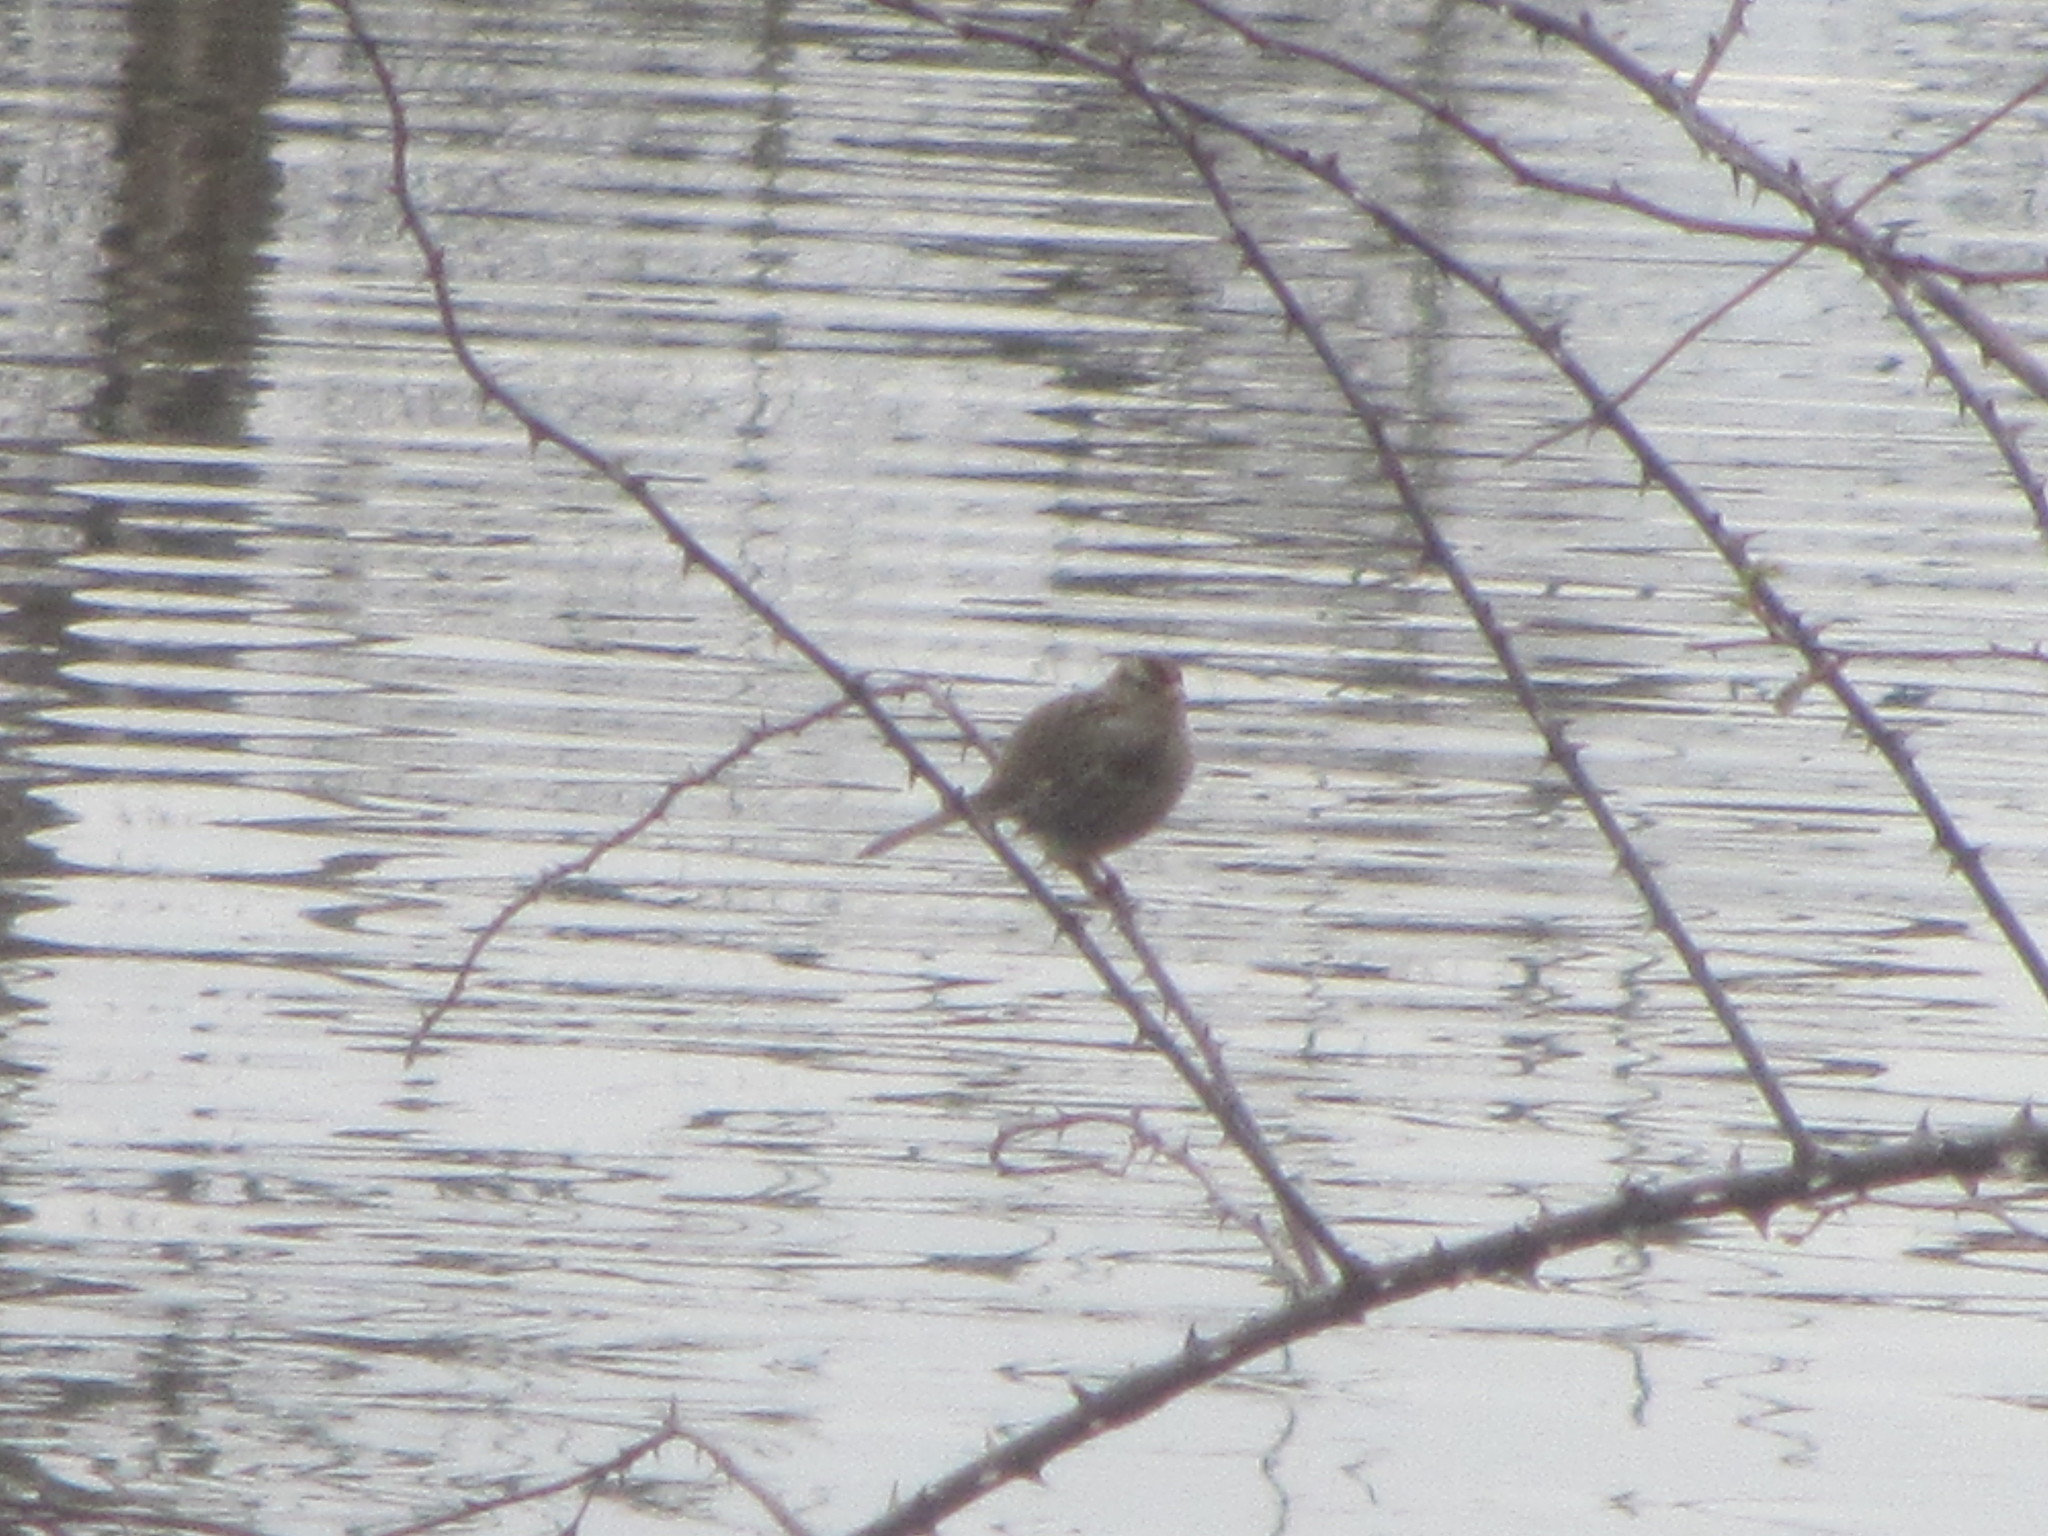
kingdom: Animalia
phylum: Chordata
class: Aves
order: Passeriformes
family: Passerellidae
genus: Zonotrichia
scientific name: Zonotrichia leucophrys
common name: White-crowned sparrow
